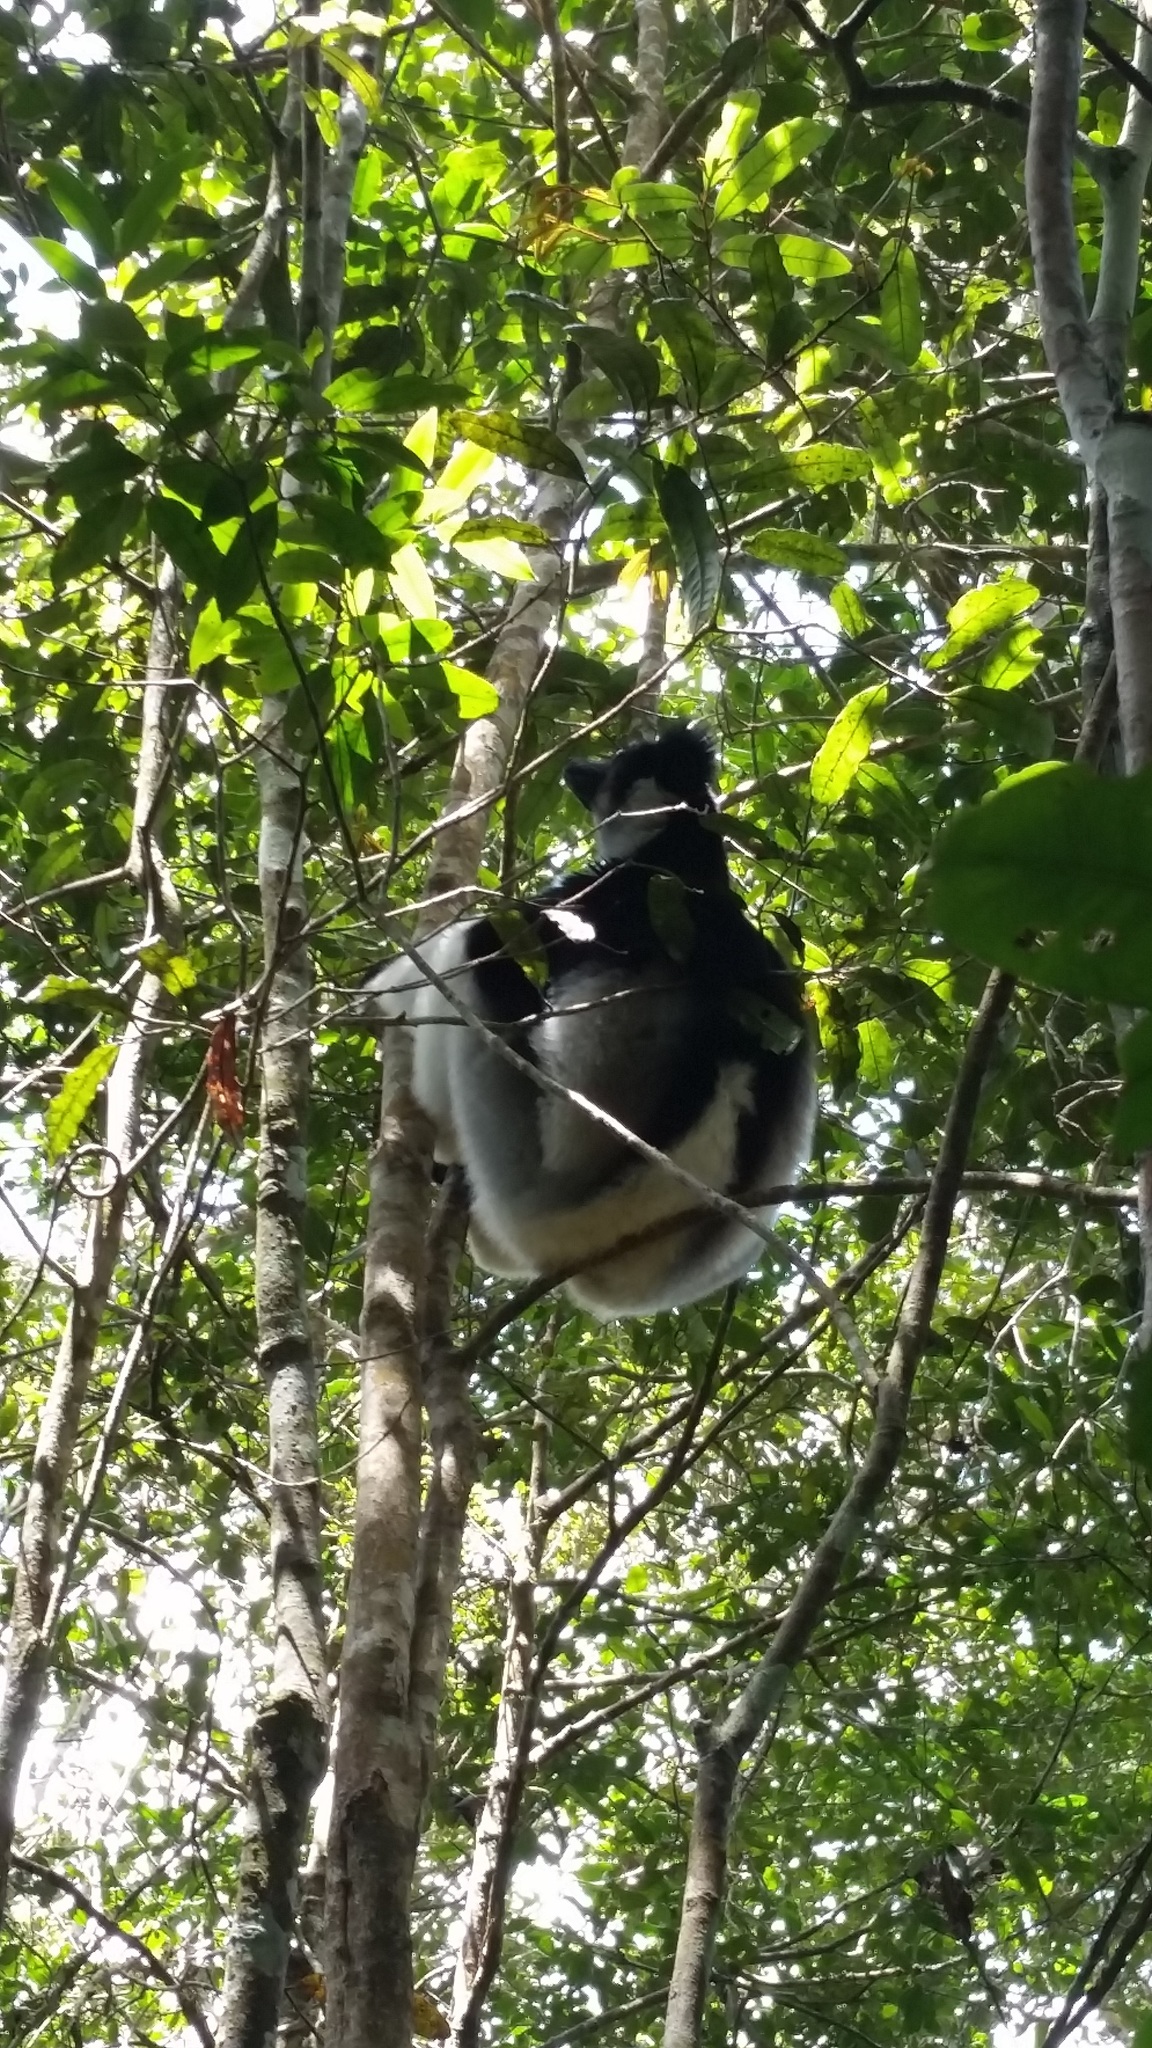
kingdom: Animalia
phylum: Chordata
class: Mammalia
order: Primates
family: Indriidae
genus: Indri
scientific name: Indri indri
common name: Indri
